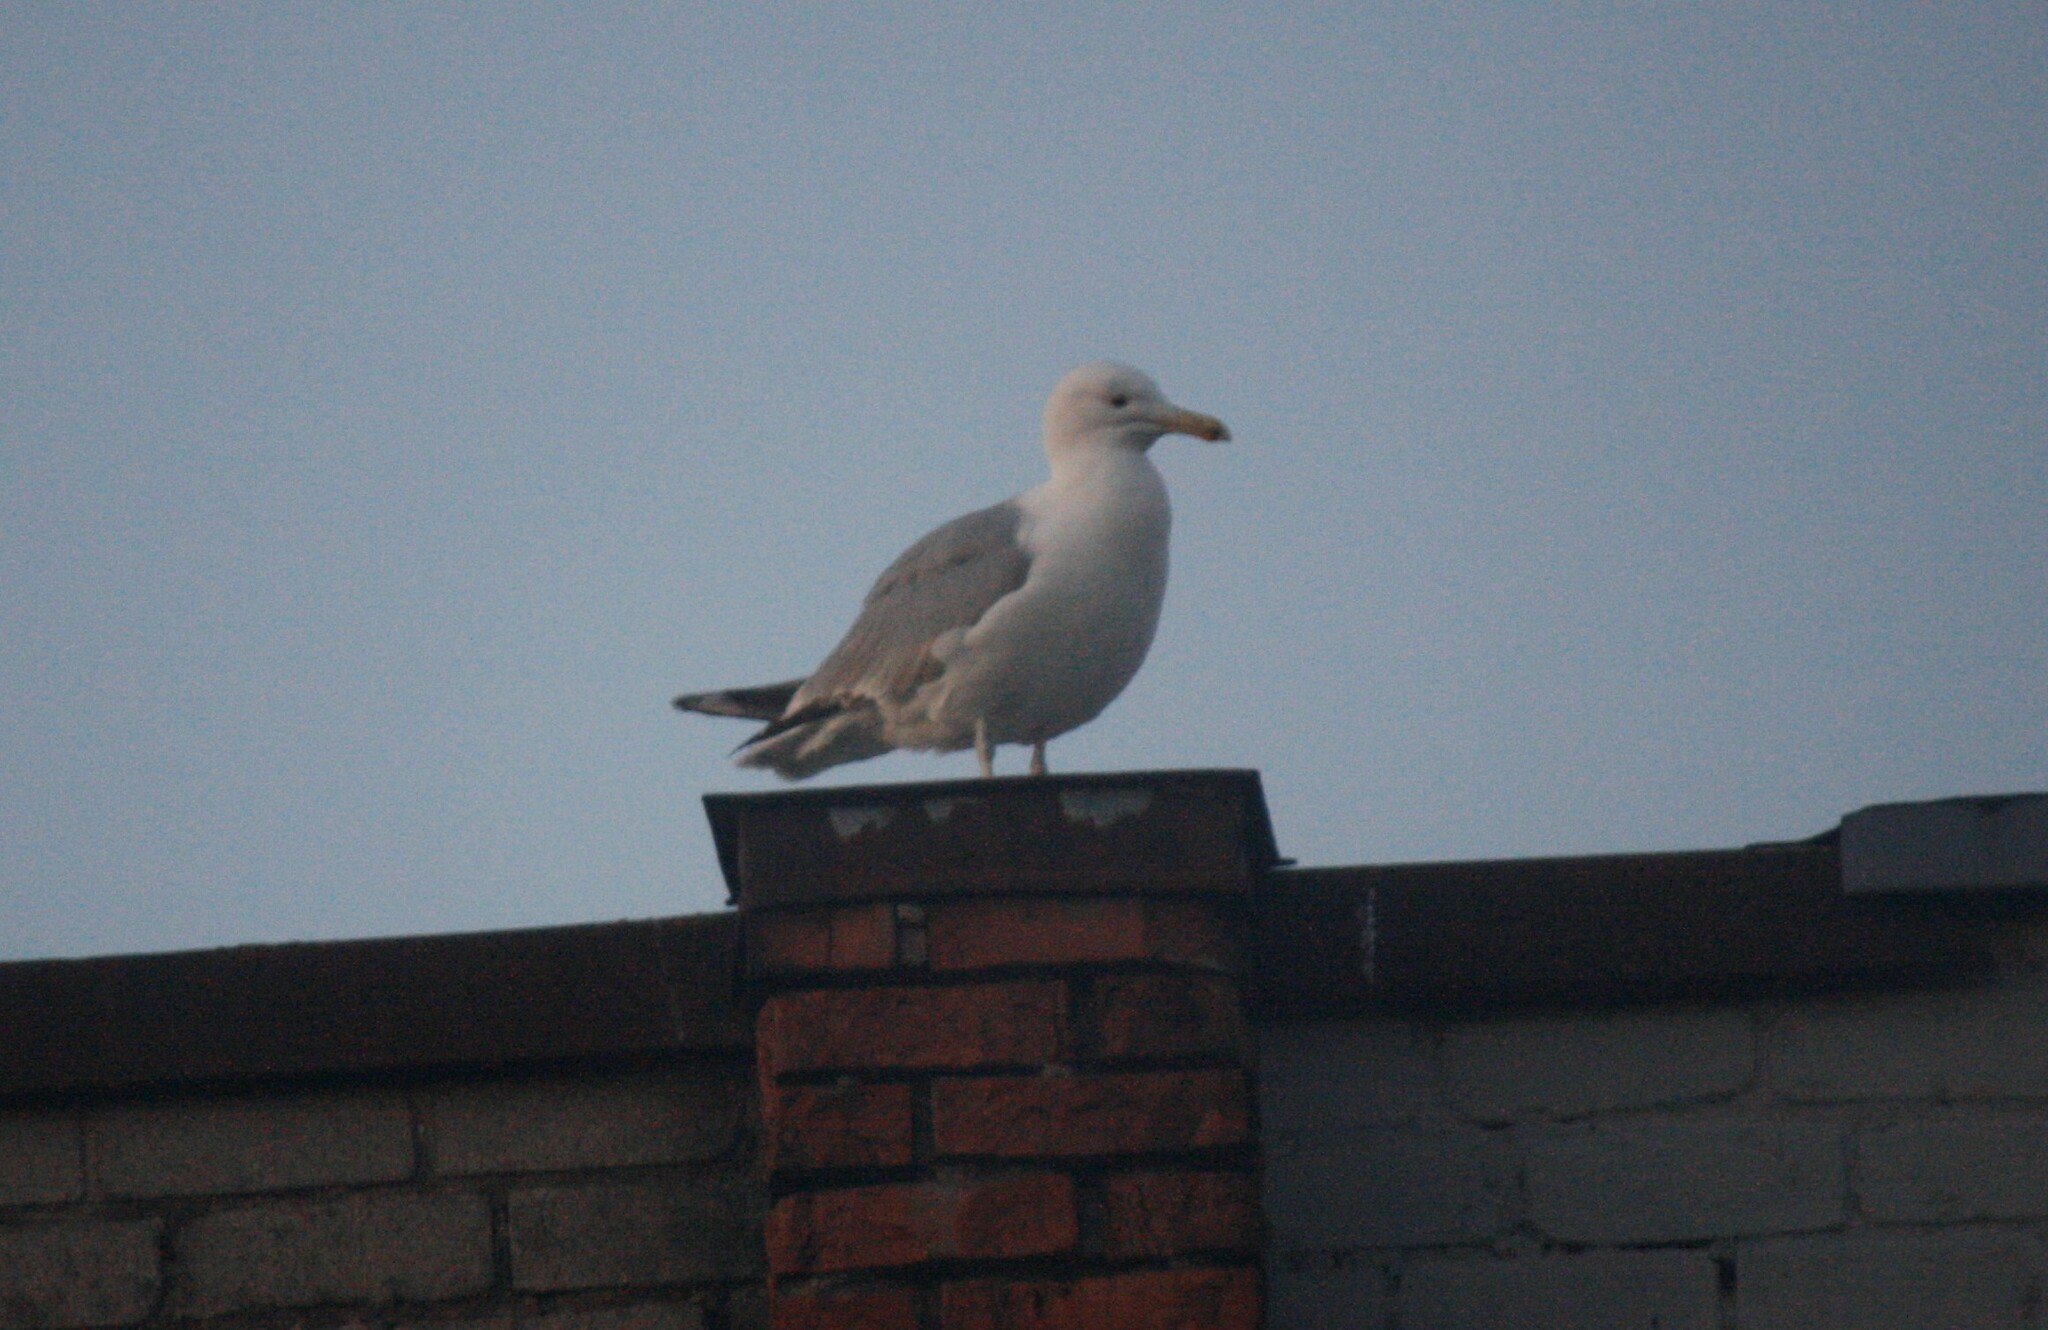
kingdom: Animalia
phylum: Chordata
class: Aves
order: Charadriiformes
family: Laridae
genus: Larus
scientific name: Larus argentatus
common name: Herring gull
